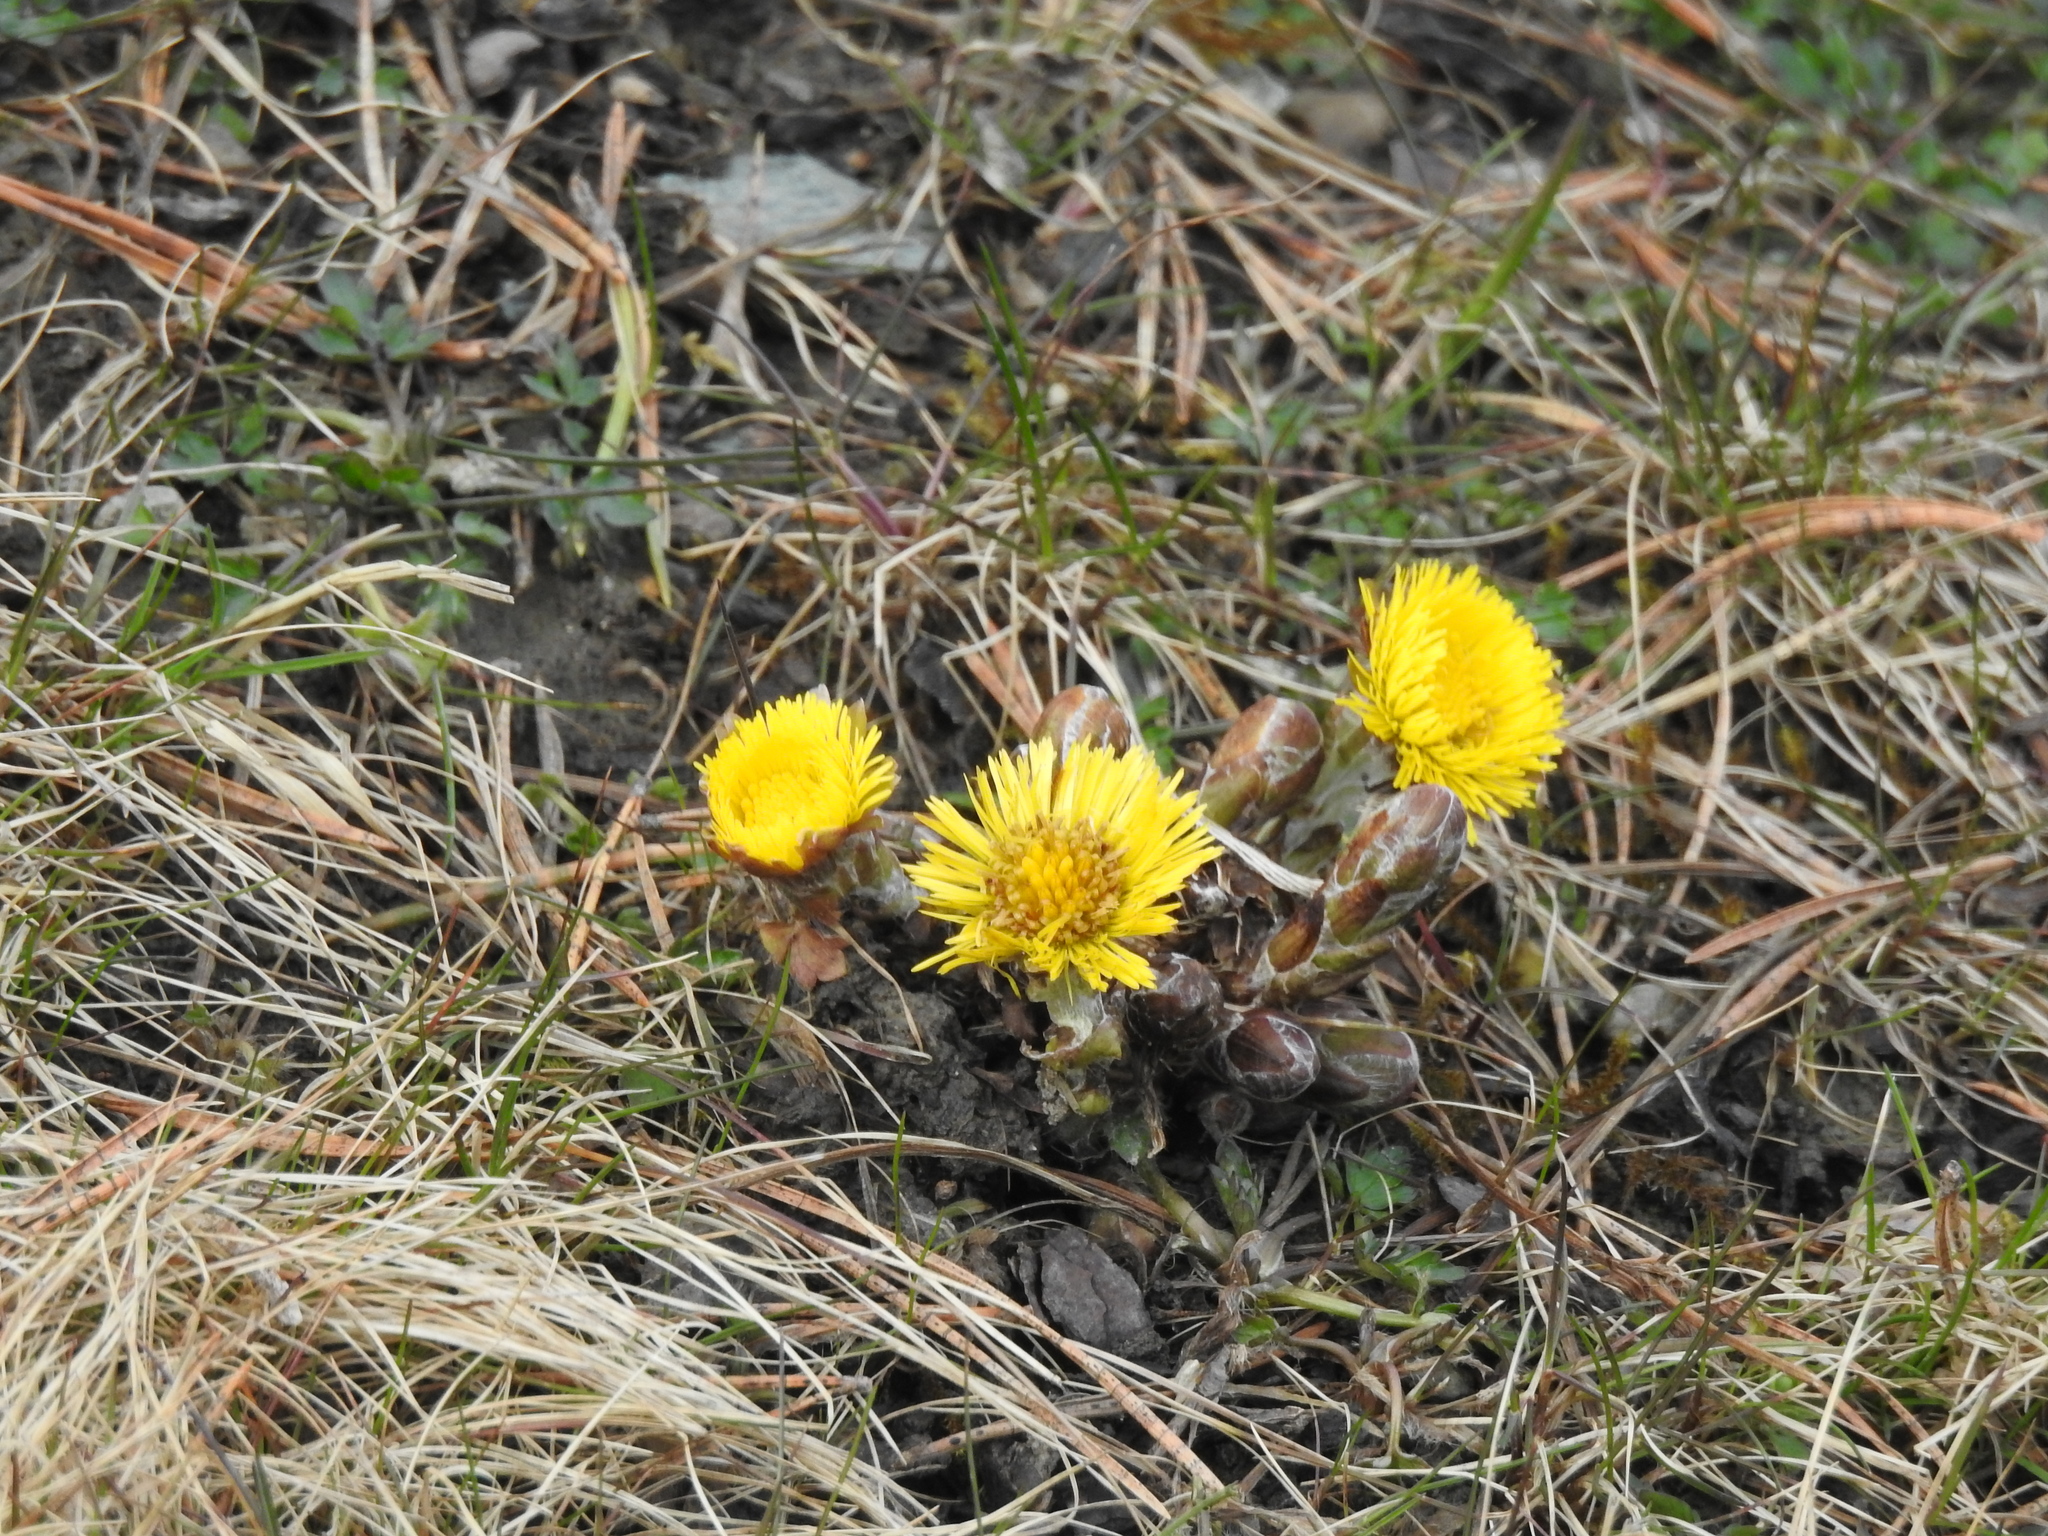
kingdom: Plantae
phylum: Tracheophyta
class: Magnoliopsida
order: Asterales
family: Asteraceae
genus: Tussilago
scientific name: Tussilago farfara
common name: Coltsfoot
